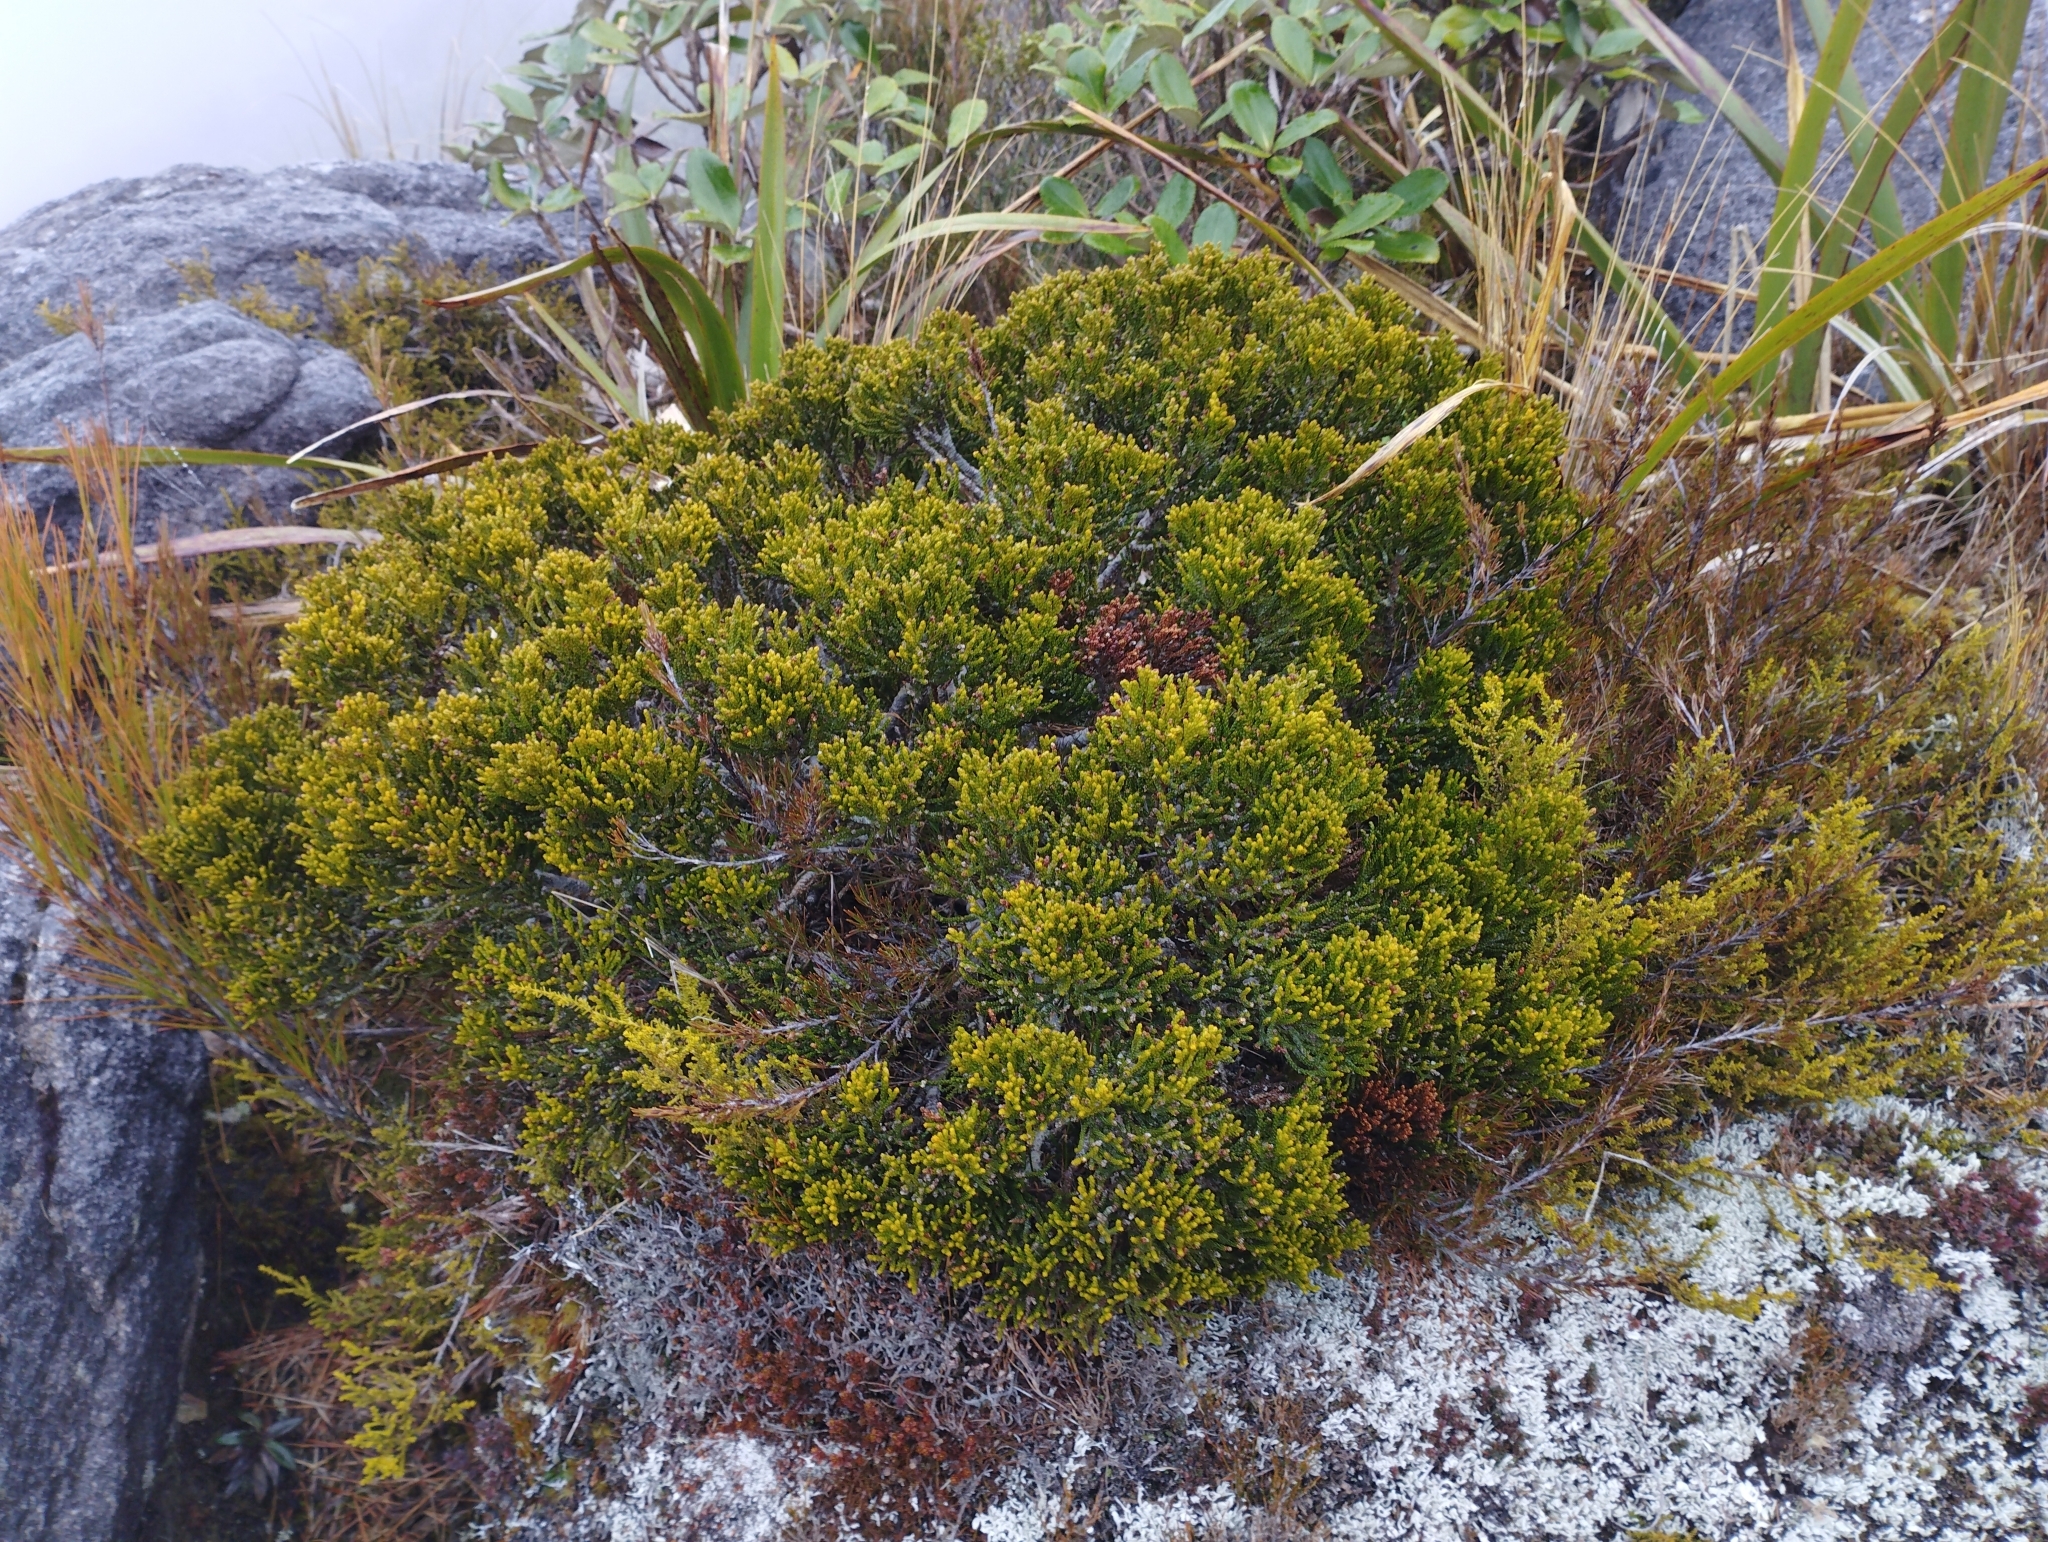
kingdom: Plantae
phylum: Tracheophyta
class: Pinopsida
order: Pinales
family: Podocarpaceae
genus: Halocarpus
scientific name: Halocarpus biformis
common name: Alpine tarwood
